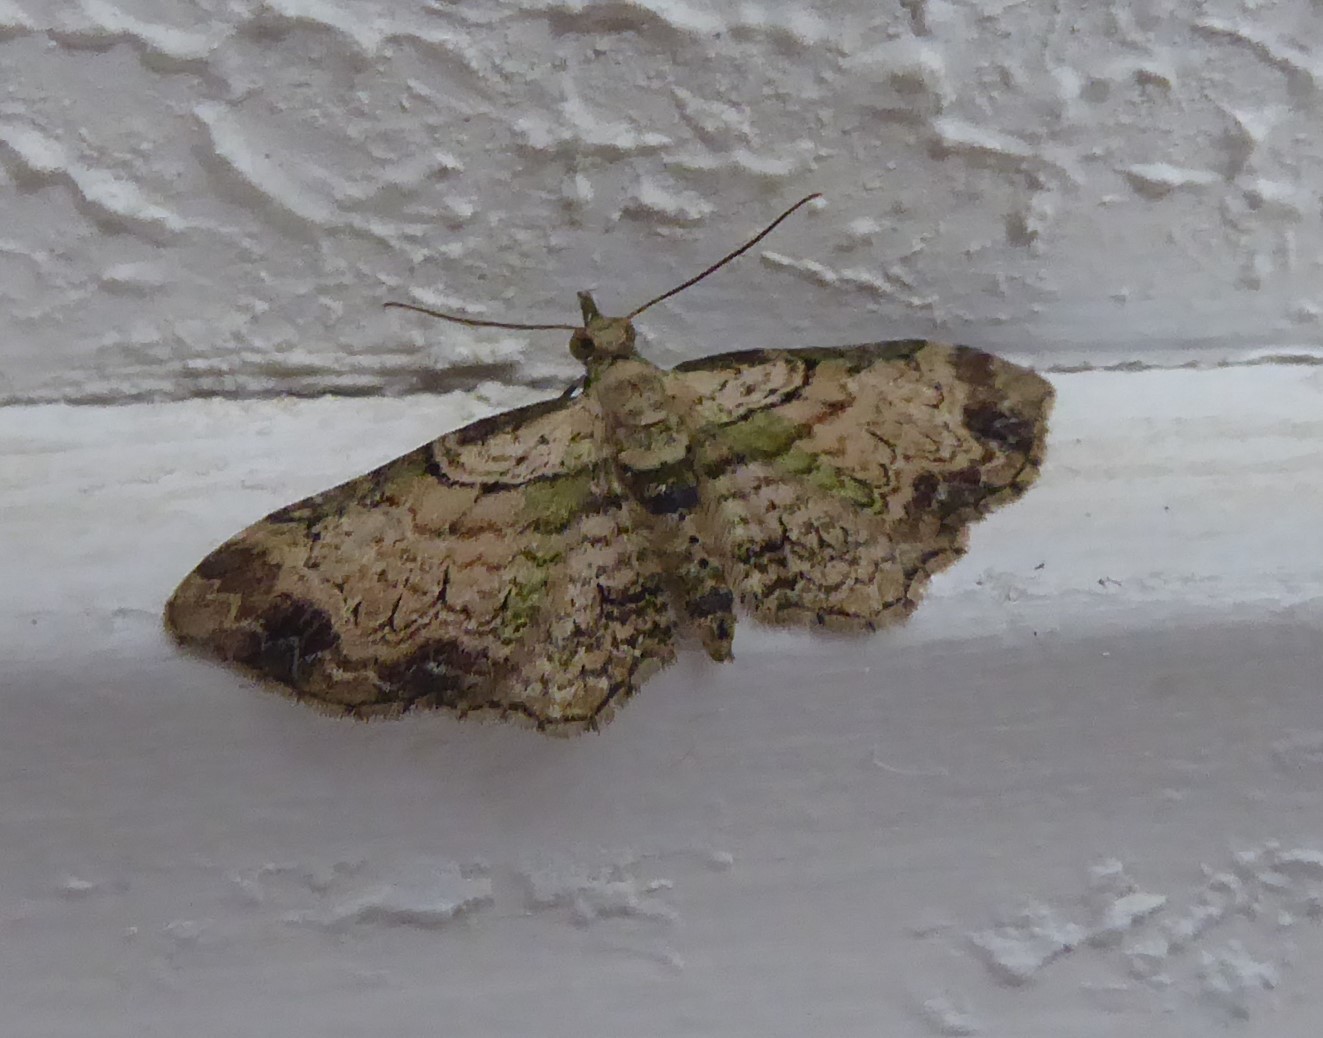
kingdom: Animalia
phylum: Arthropoda
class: Insecta
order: Lepidoptera
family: Geometridae
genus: Chloroclystis
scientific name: Chloroclystis
